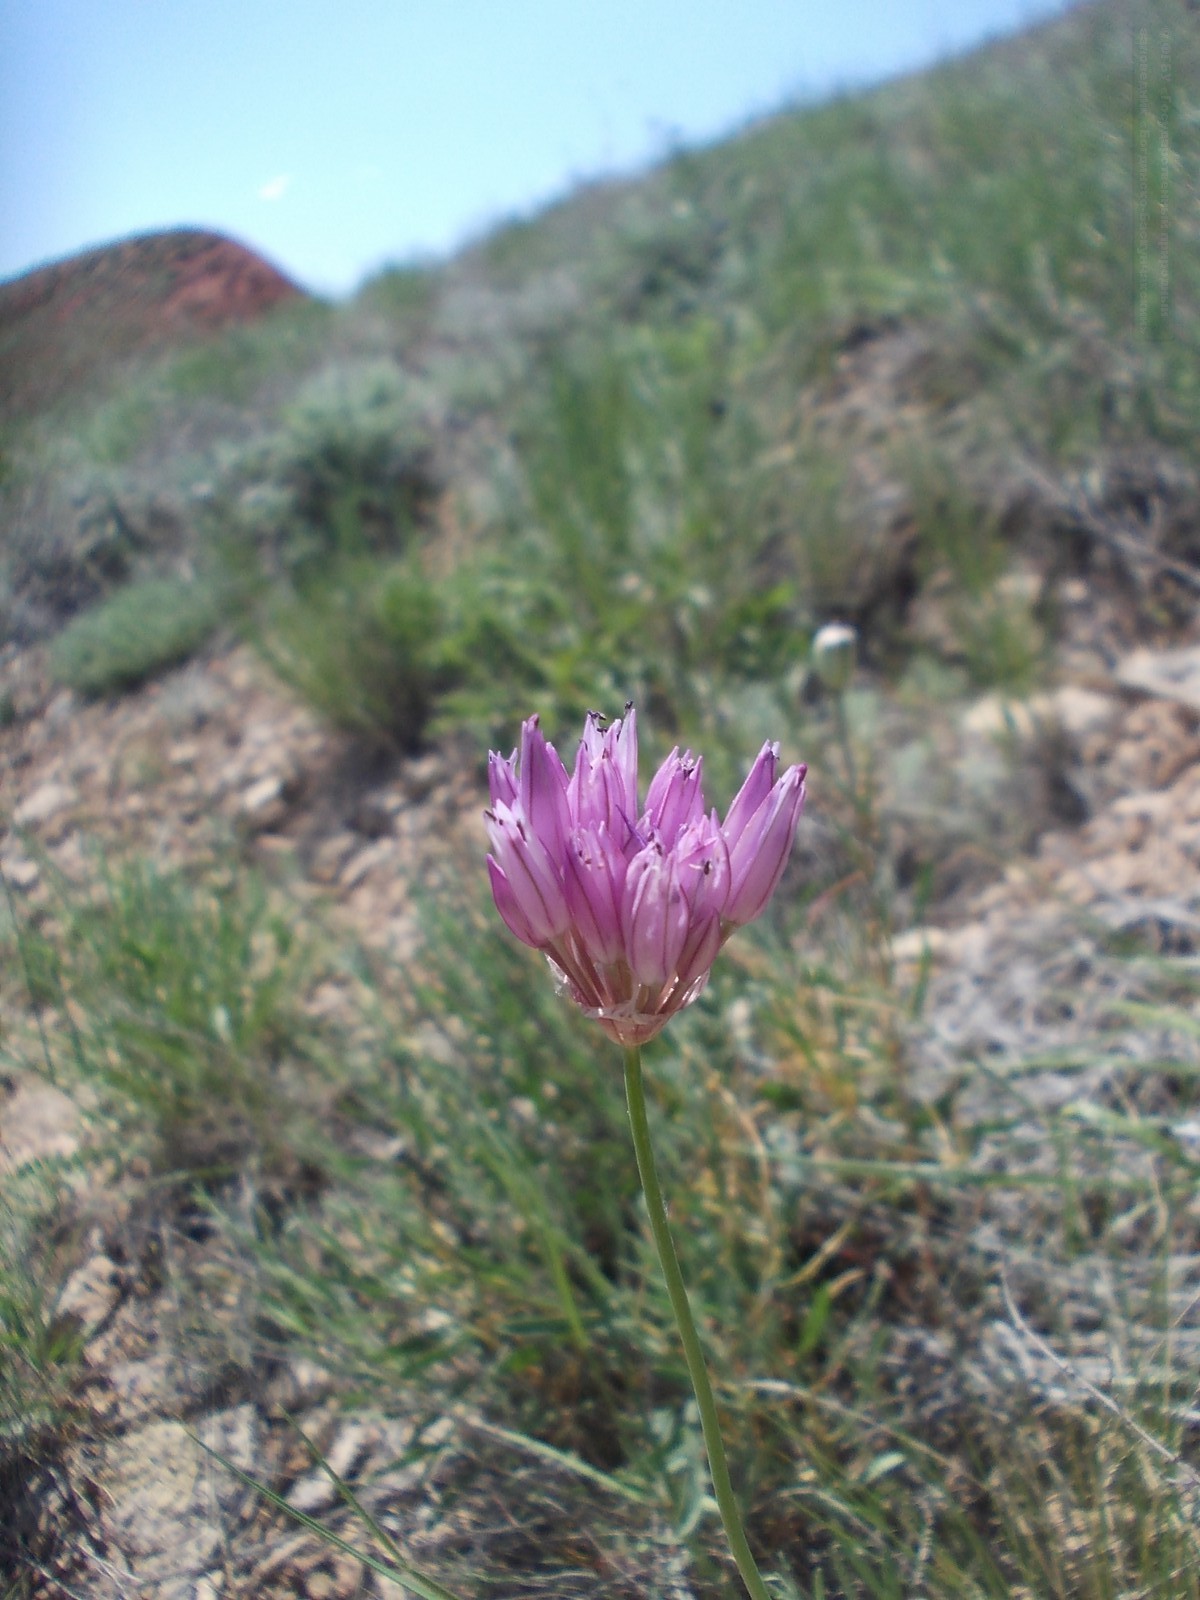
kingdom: Plantae
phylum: Tracheophyta
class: Liliopsida
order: Asparagales
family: Amaryllidaceae
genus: Allium
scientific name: Allium inderiense
